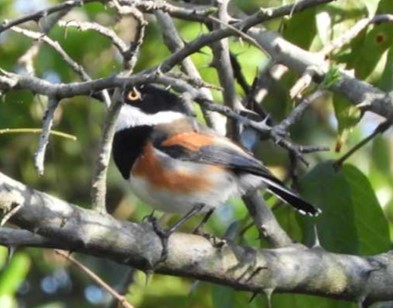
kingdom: Animalia
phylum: Chordata
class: Aves
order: Passeriformes
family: Platysteiridae
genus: Batis
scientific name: Batis capensis
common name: Cape batis
